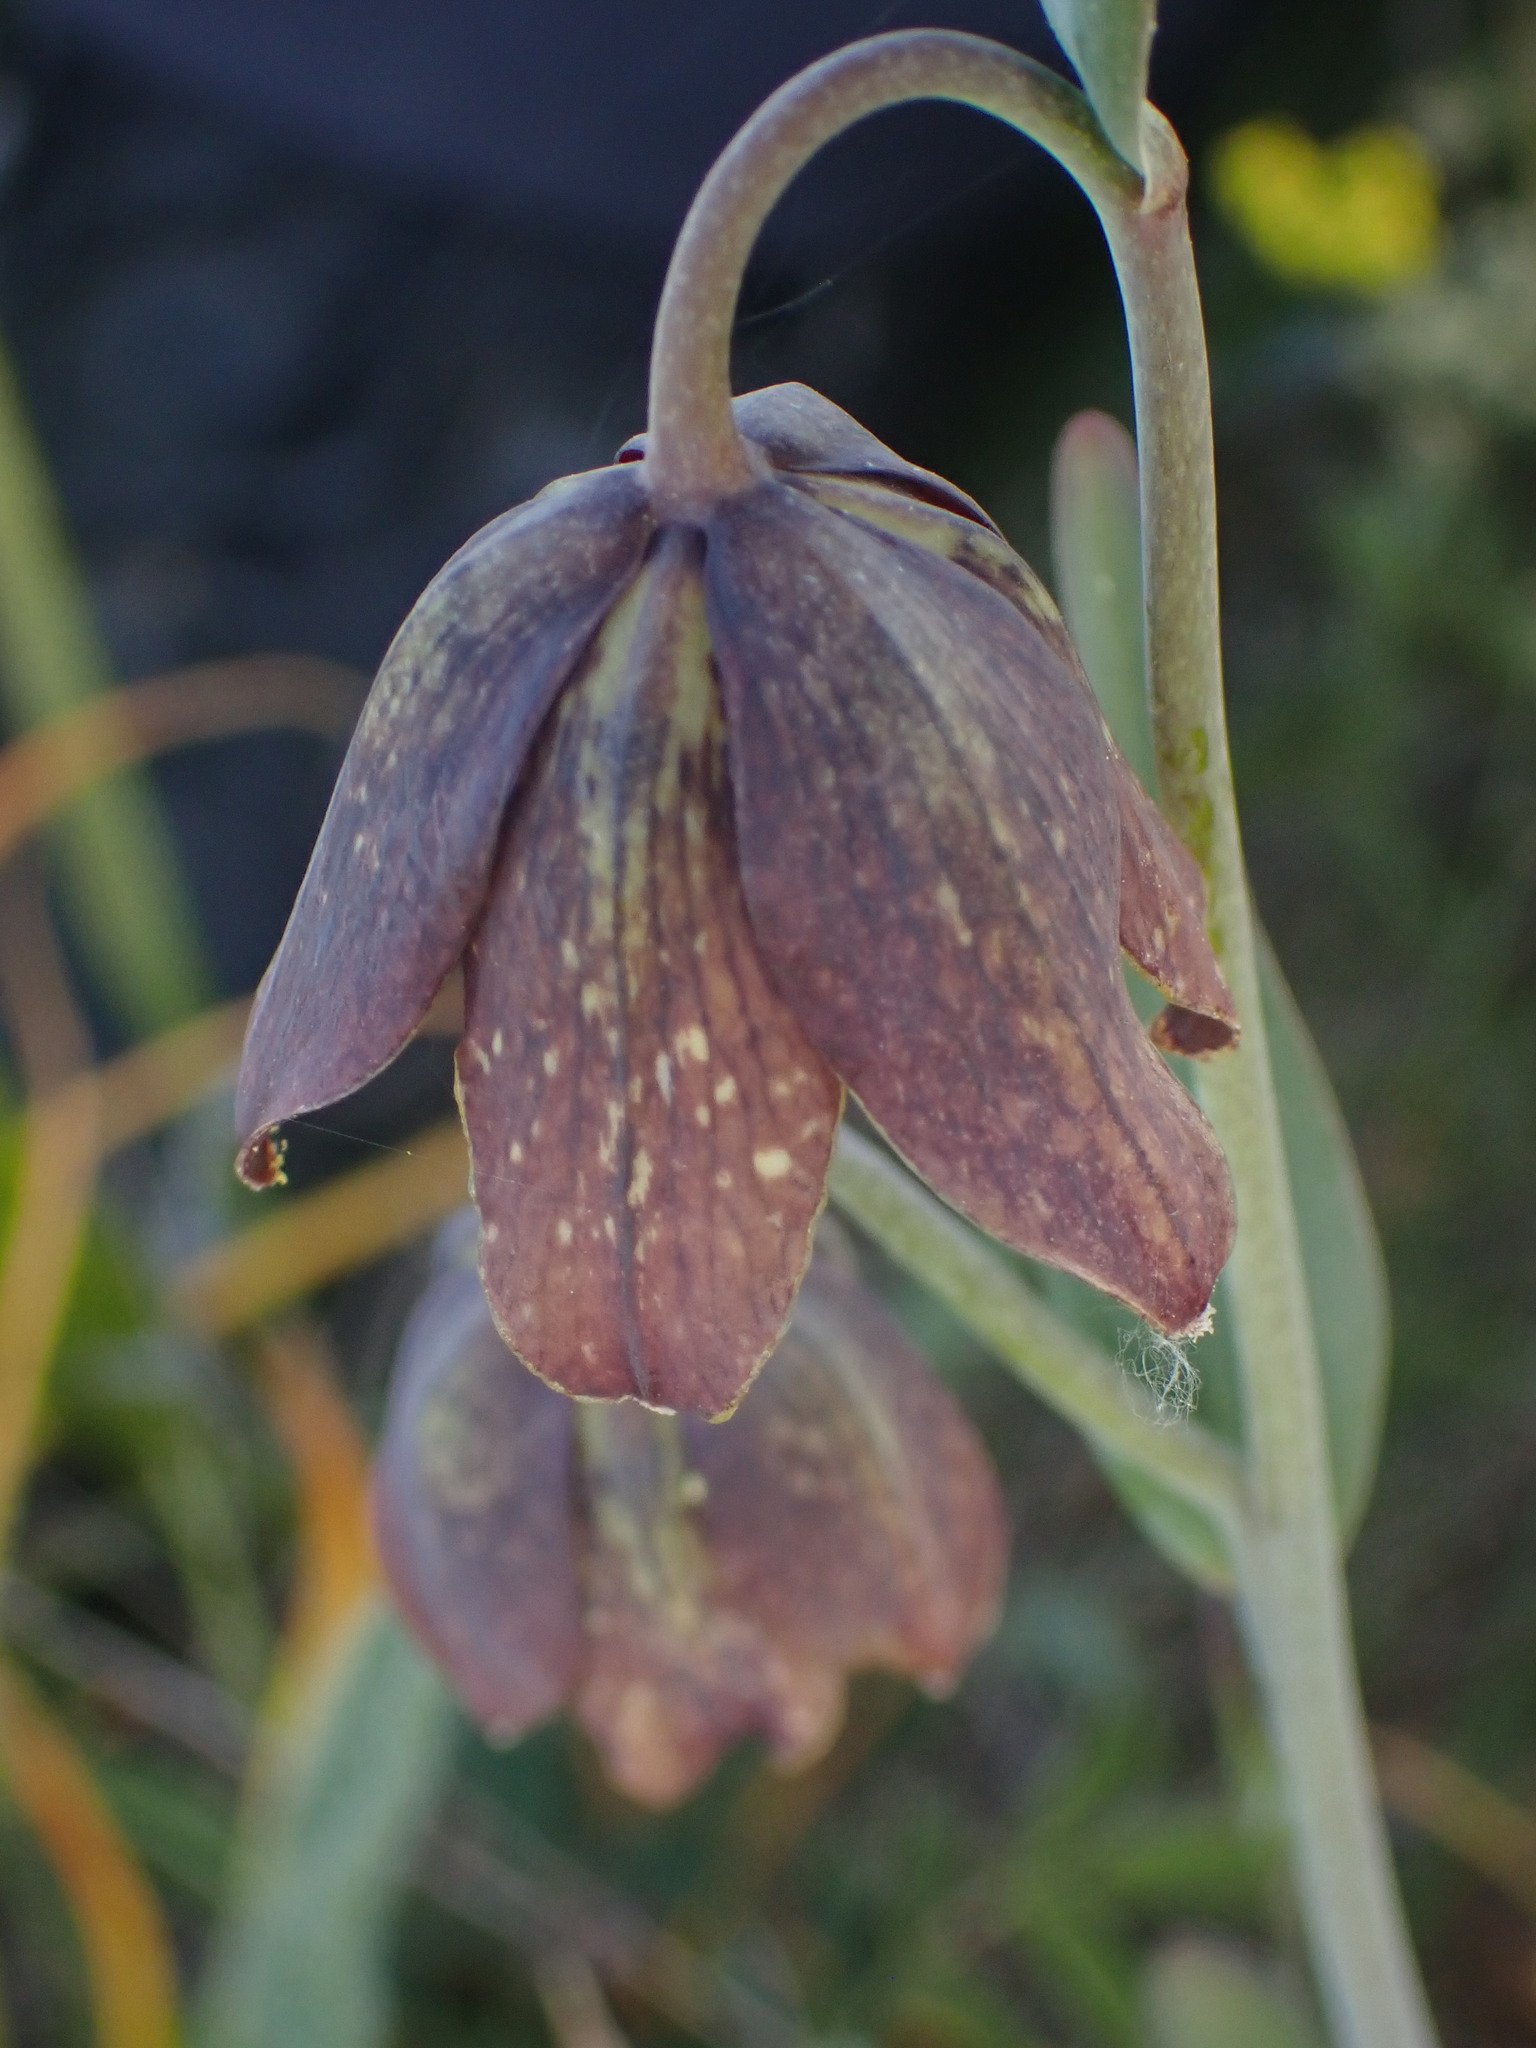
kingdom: Plantae
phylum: Tracheophyta
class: Liliopsida
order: Liliales
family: Liliaceae
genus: Fritillaria
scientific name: Fritillaria affinis
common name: Ojai fritillary
